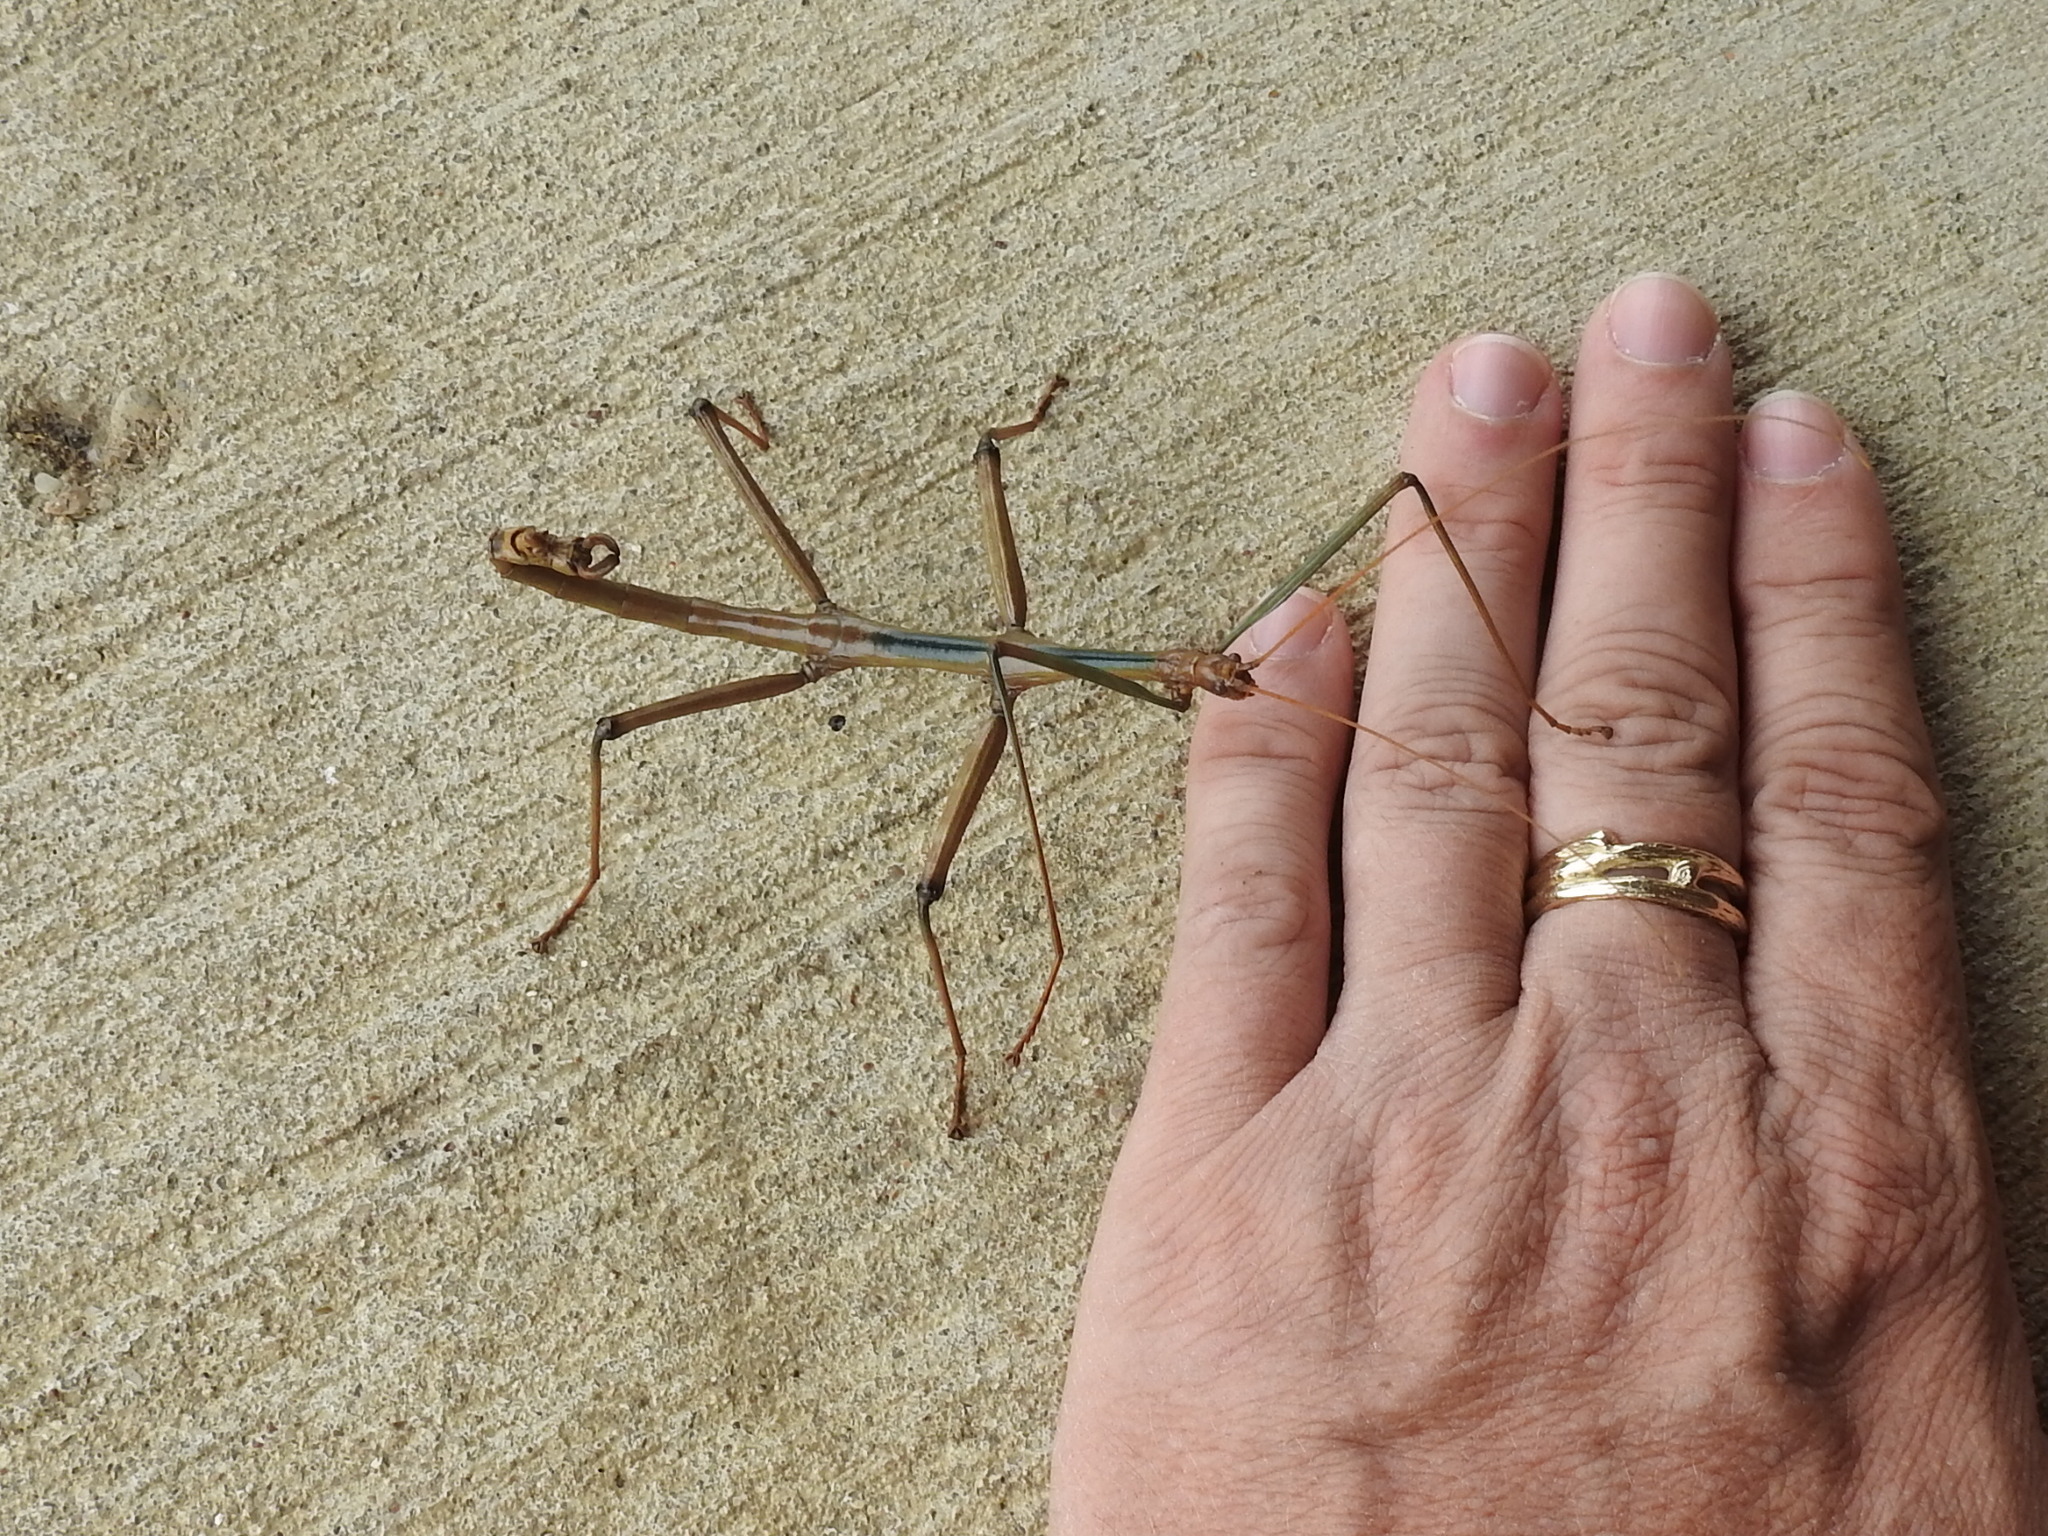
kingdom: Animalia
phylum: Arthropoda
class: Insecta
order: Phasmida
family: Diapheromeridae
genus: Megaphasma
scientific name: Megaphasma denticrus
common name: Giant walkingstick
